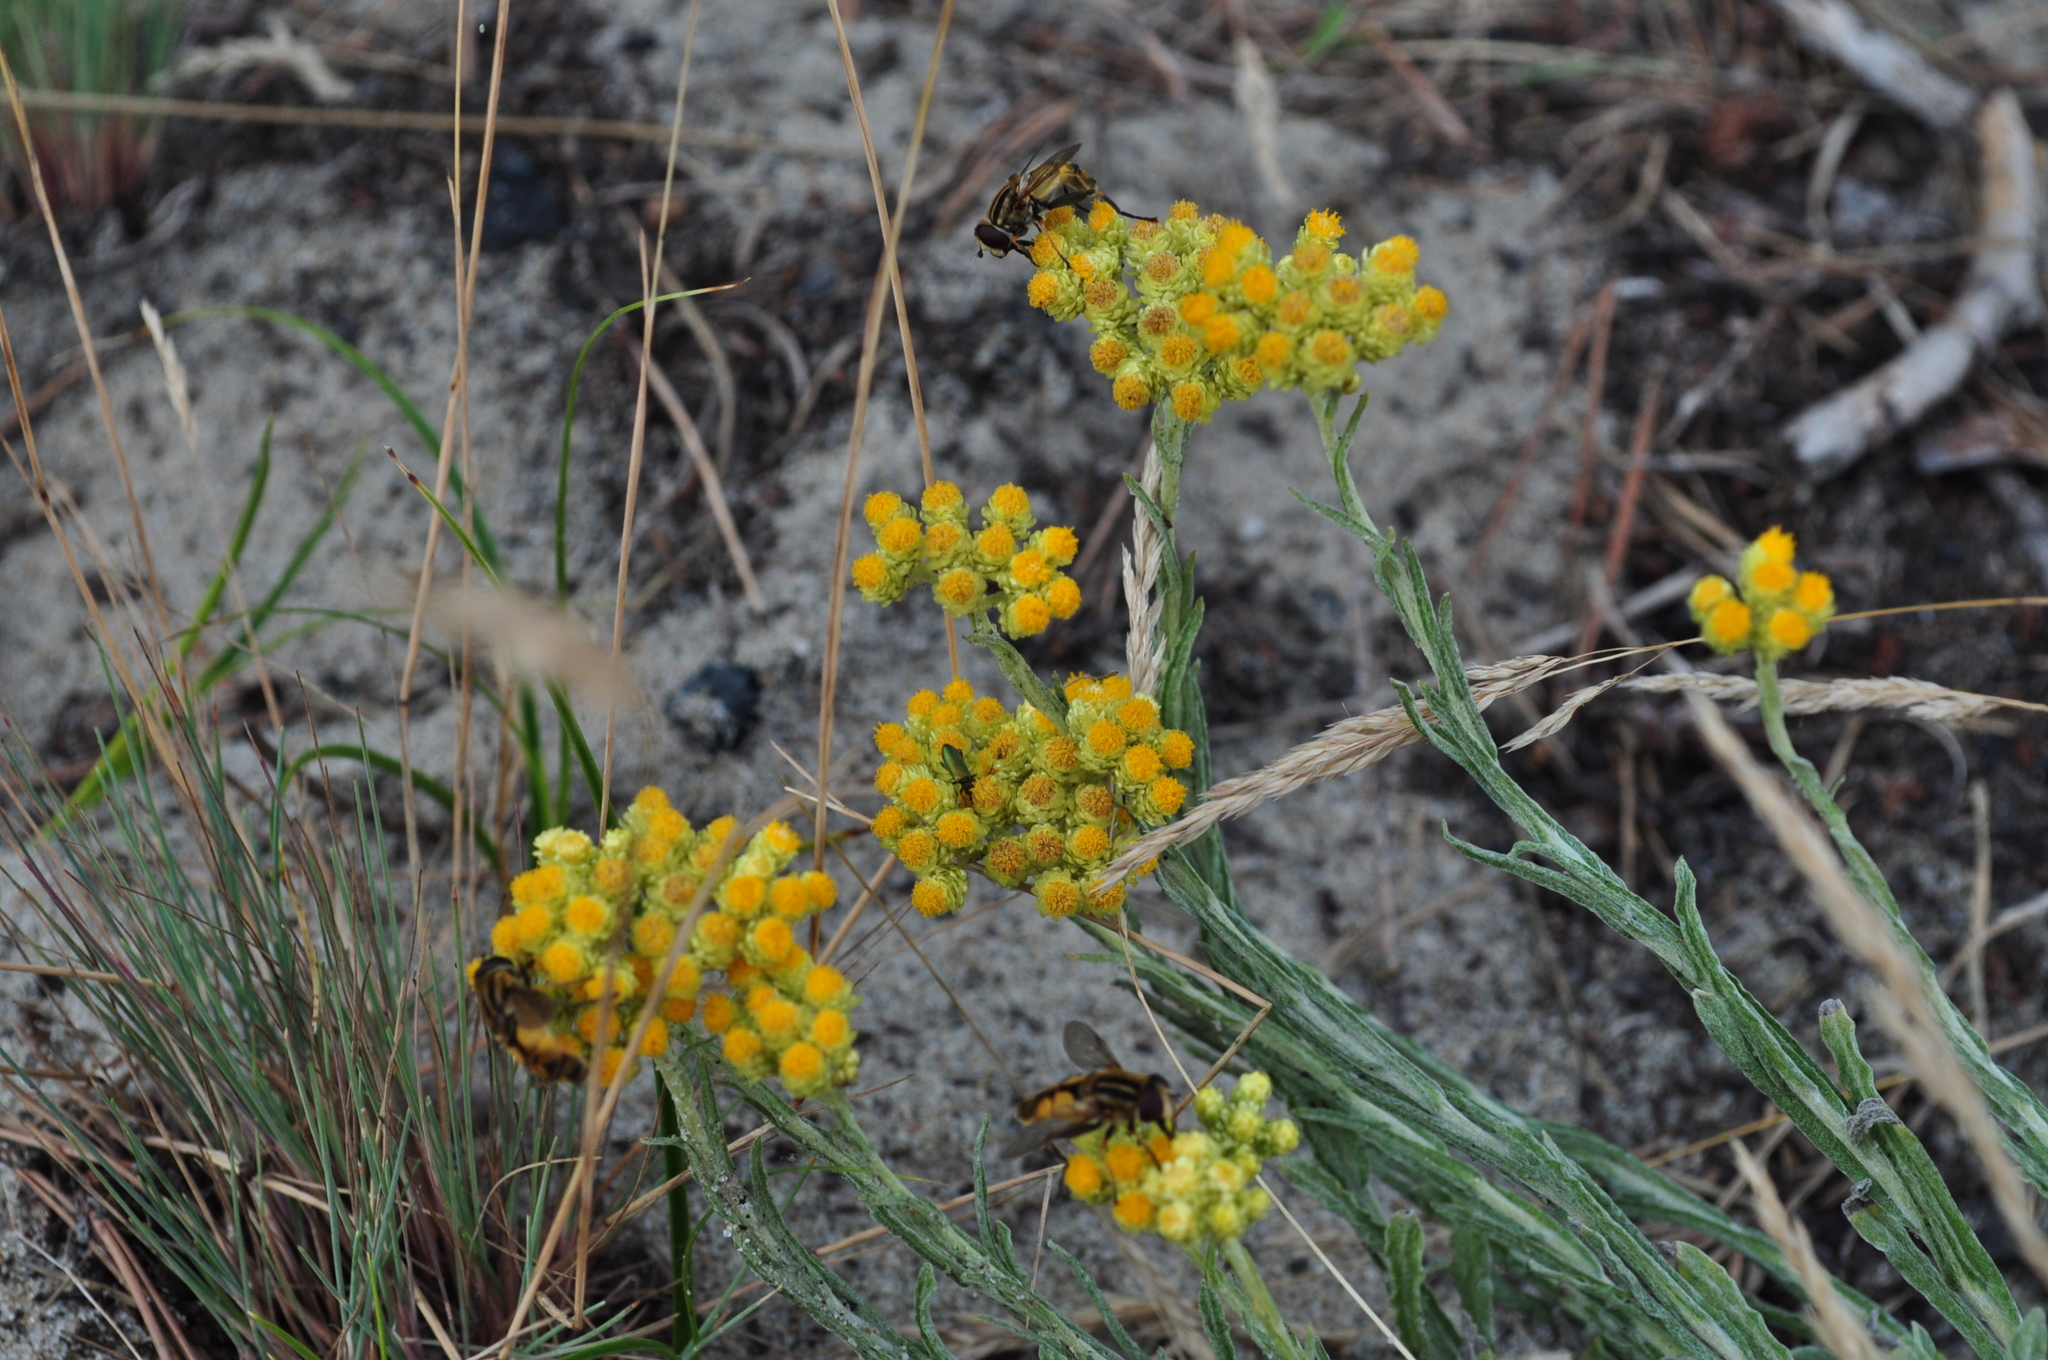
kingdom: Plantae
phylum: Tracheophyta
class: Magnoliopsida
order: Asterales
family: Asteraceae
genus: Helichrysum
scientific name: Helichrysum arenarium
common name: Strawflower
